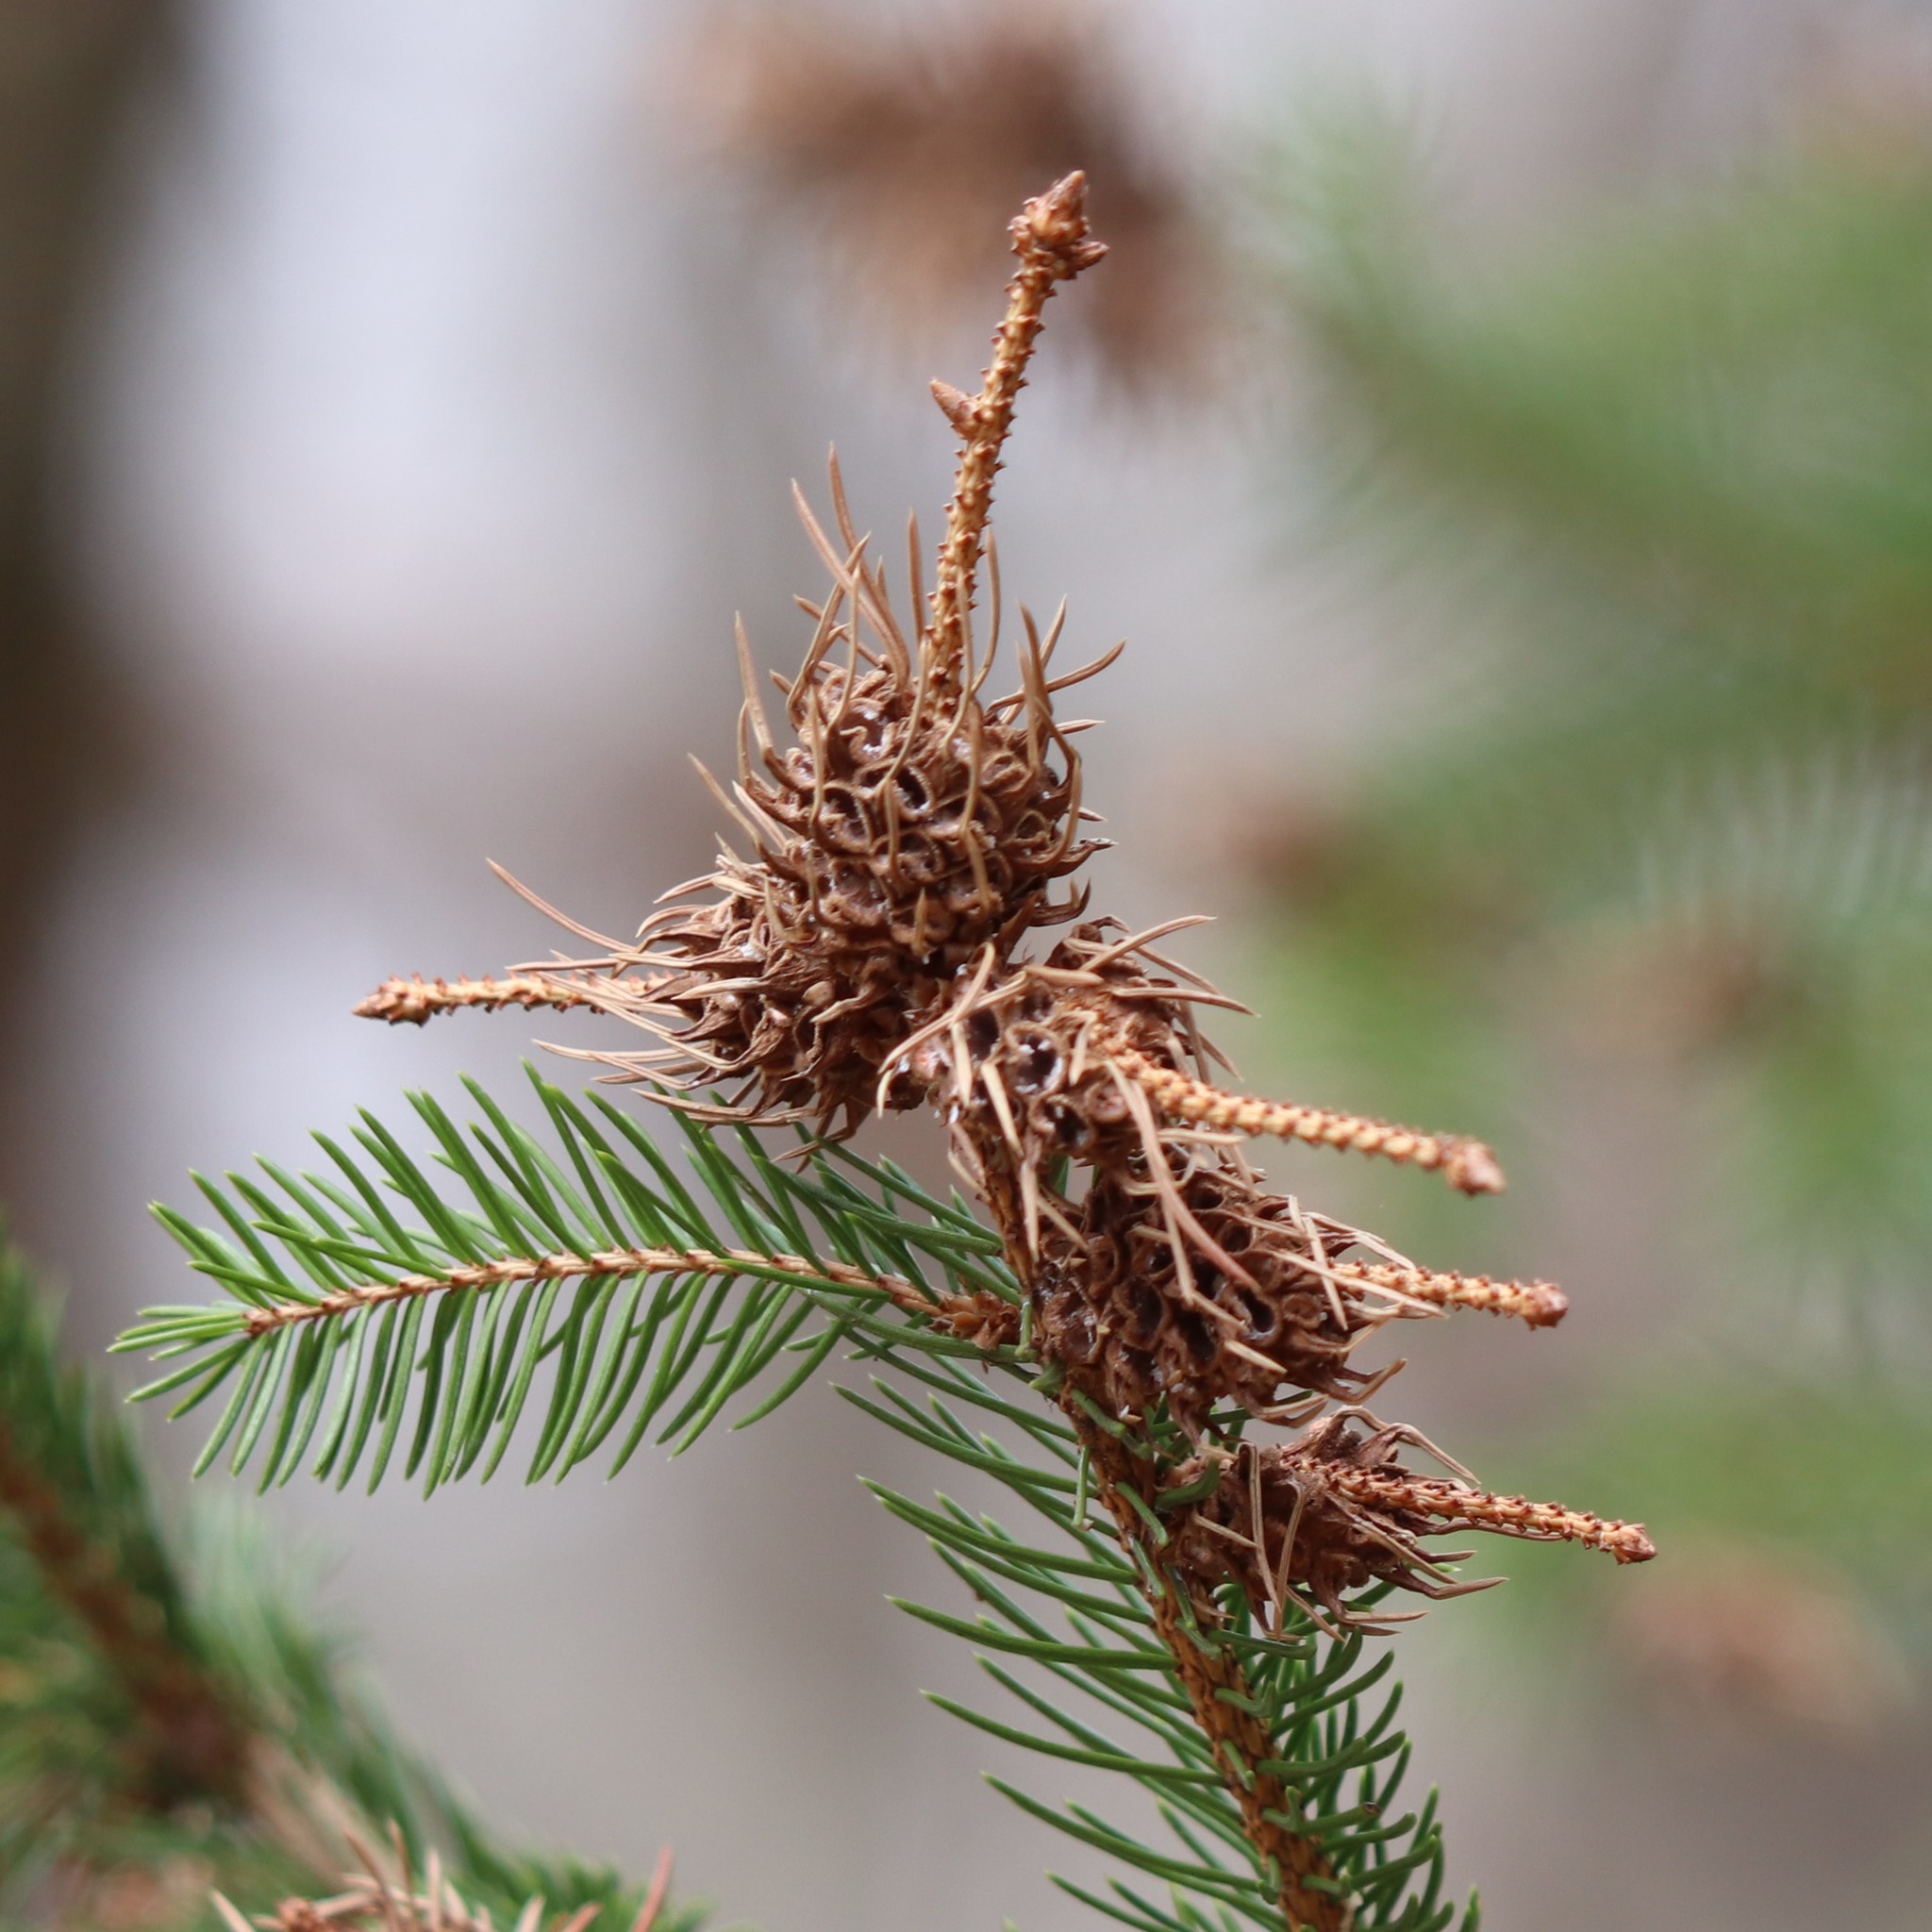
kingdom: Animalia
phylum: Arthropoda
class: Insecta
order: Hemiptera
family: Adelgidae
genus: Adelges
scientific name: Adelges abietis
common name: Eastern spruce gall adelgid
